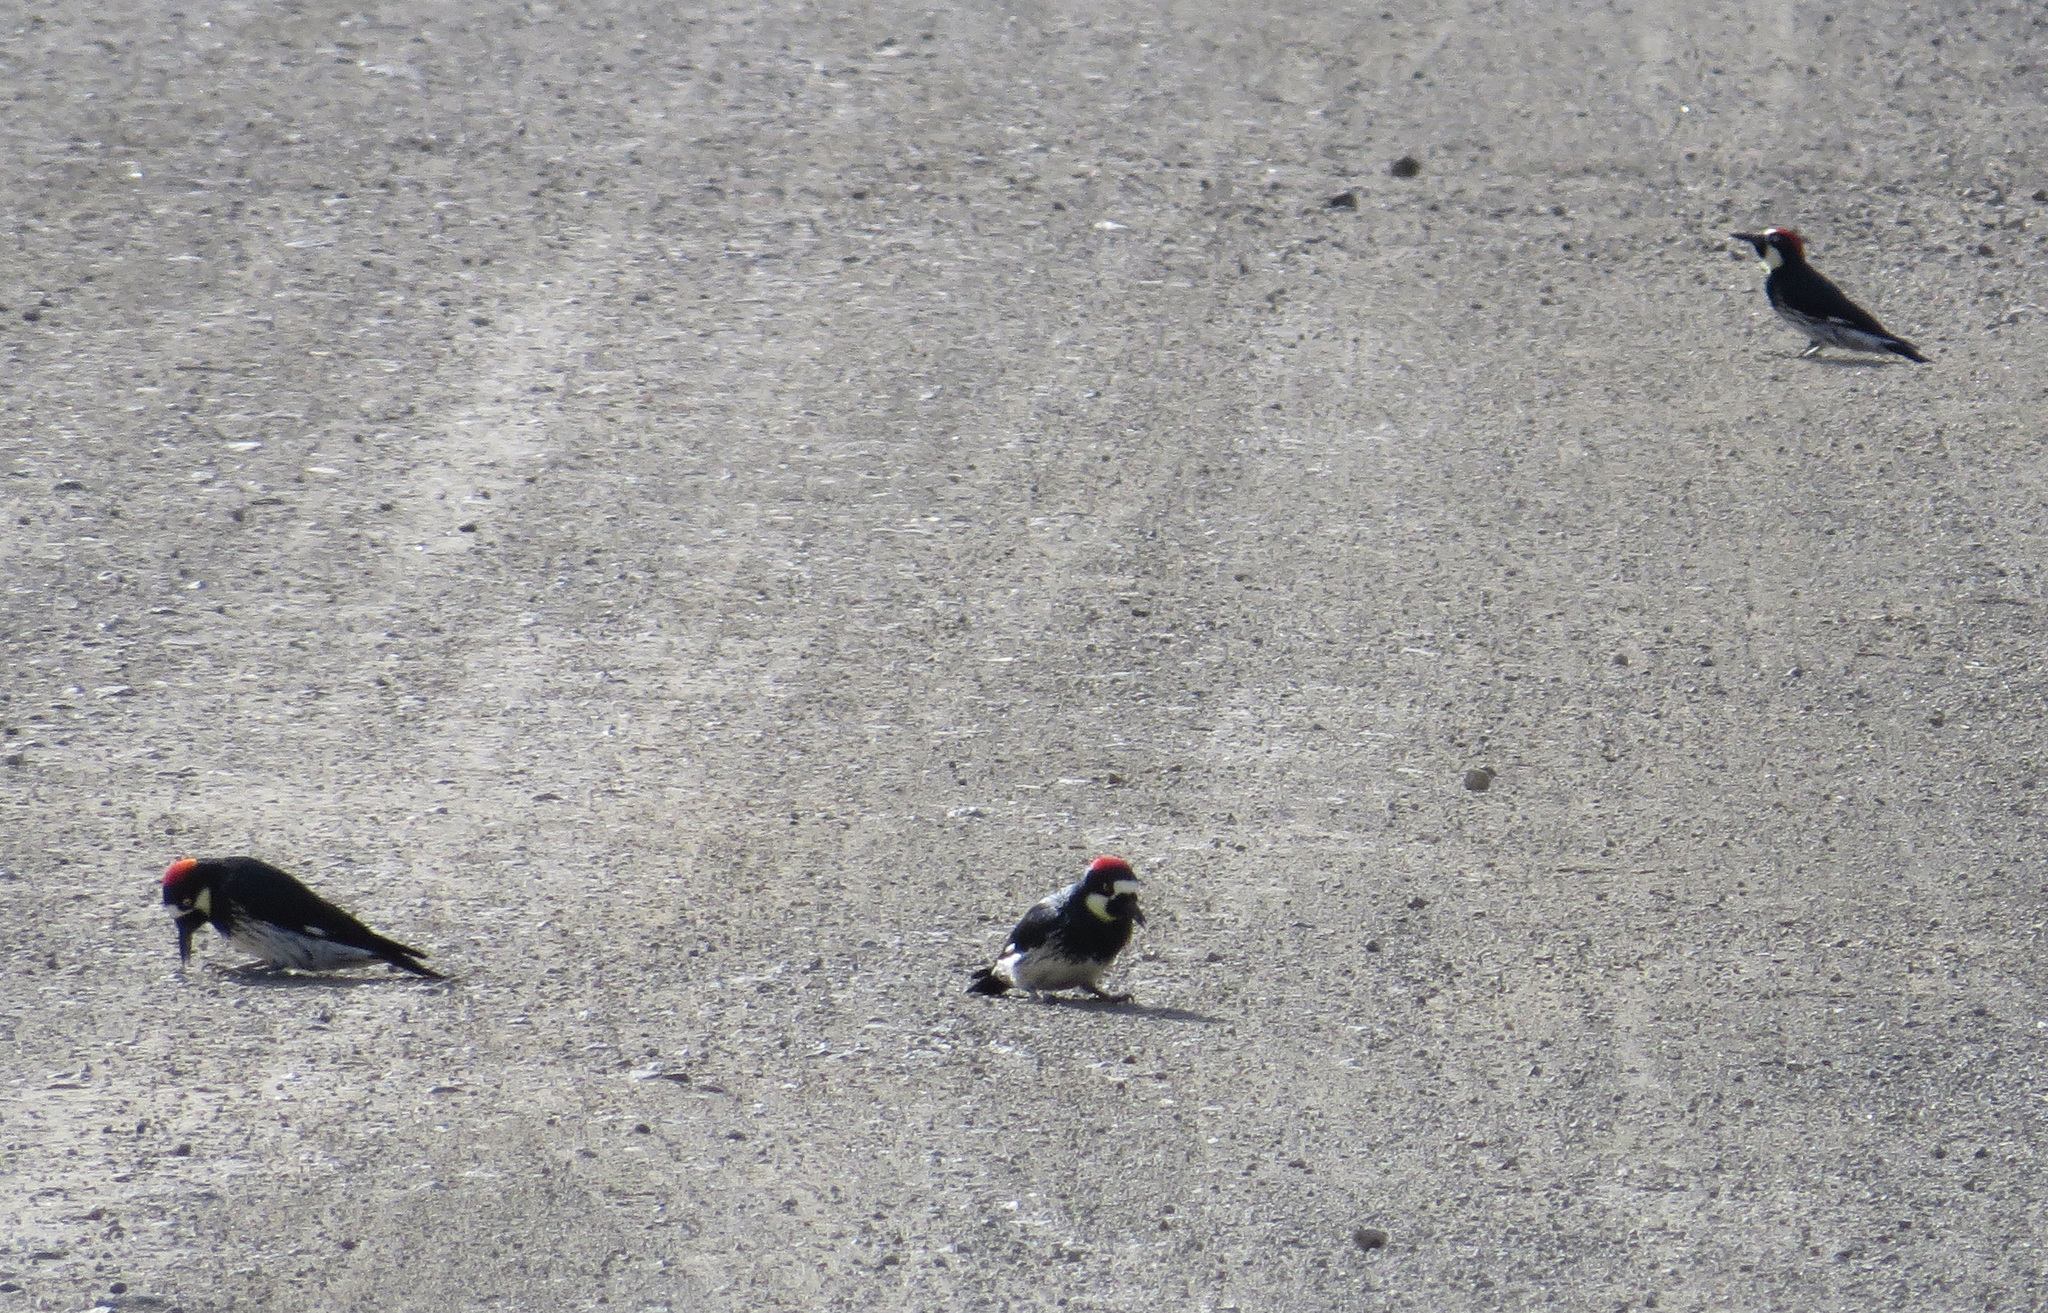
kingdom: Animalia
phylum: Chordata
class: Aves
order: Piciformes
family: Picidae
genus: Melanerpes
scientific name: Melanerpes formicivorus
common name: Acorn woodpecker
